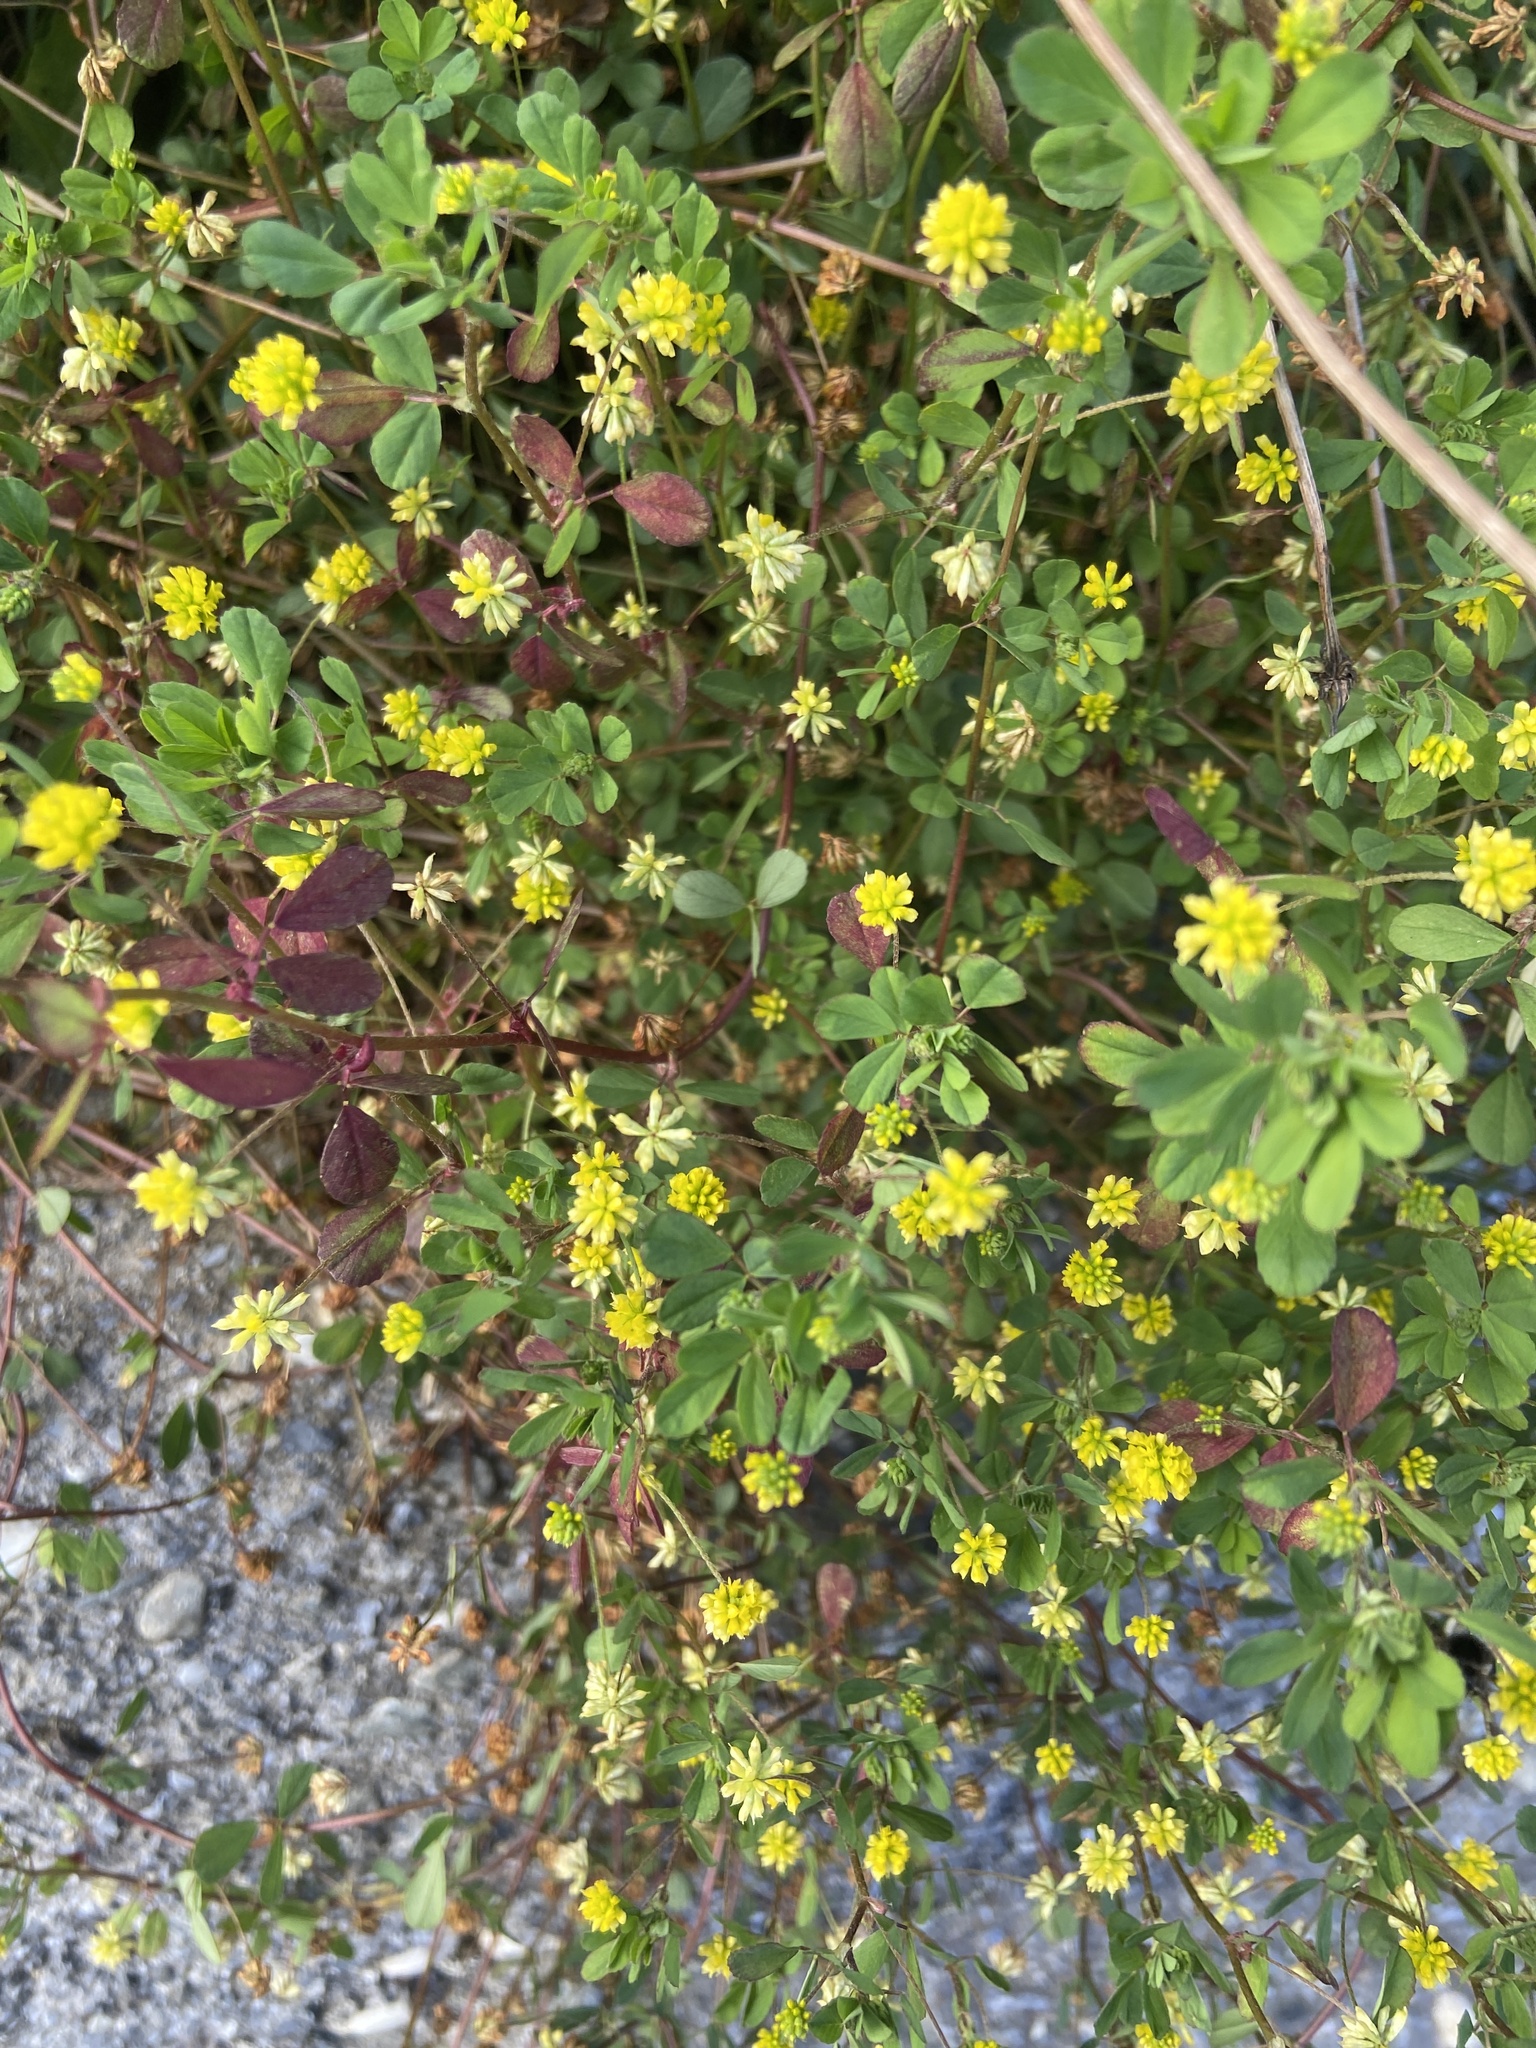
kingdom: Plantae
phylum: Tracheophyta
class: Magnoliopsida
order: Fabales
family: Fabaceae
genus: Trifolium
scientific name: Trifolium dubium
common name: Suckling clover
